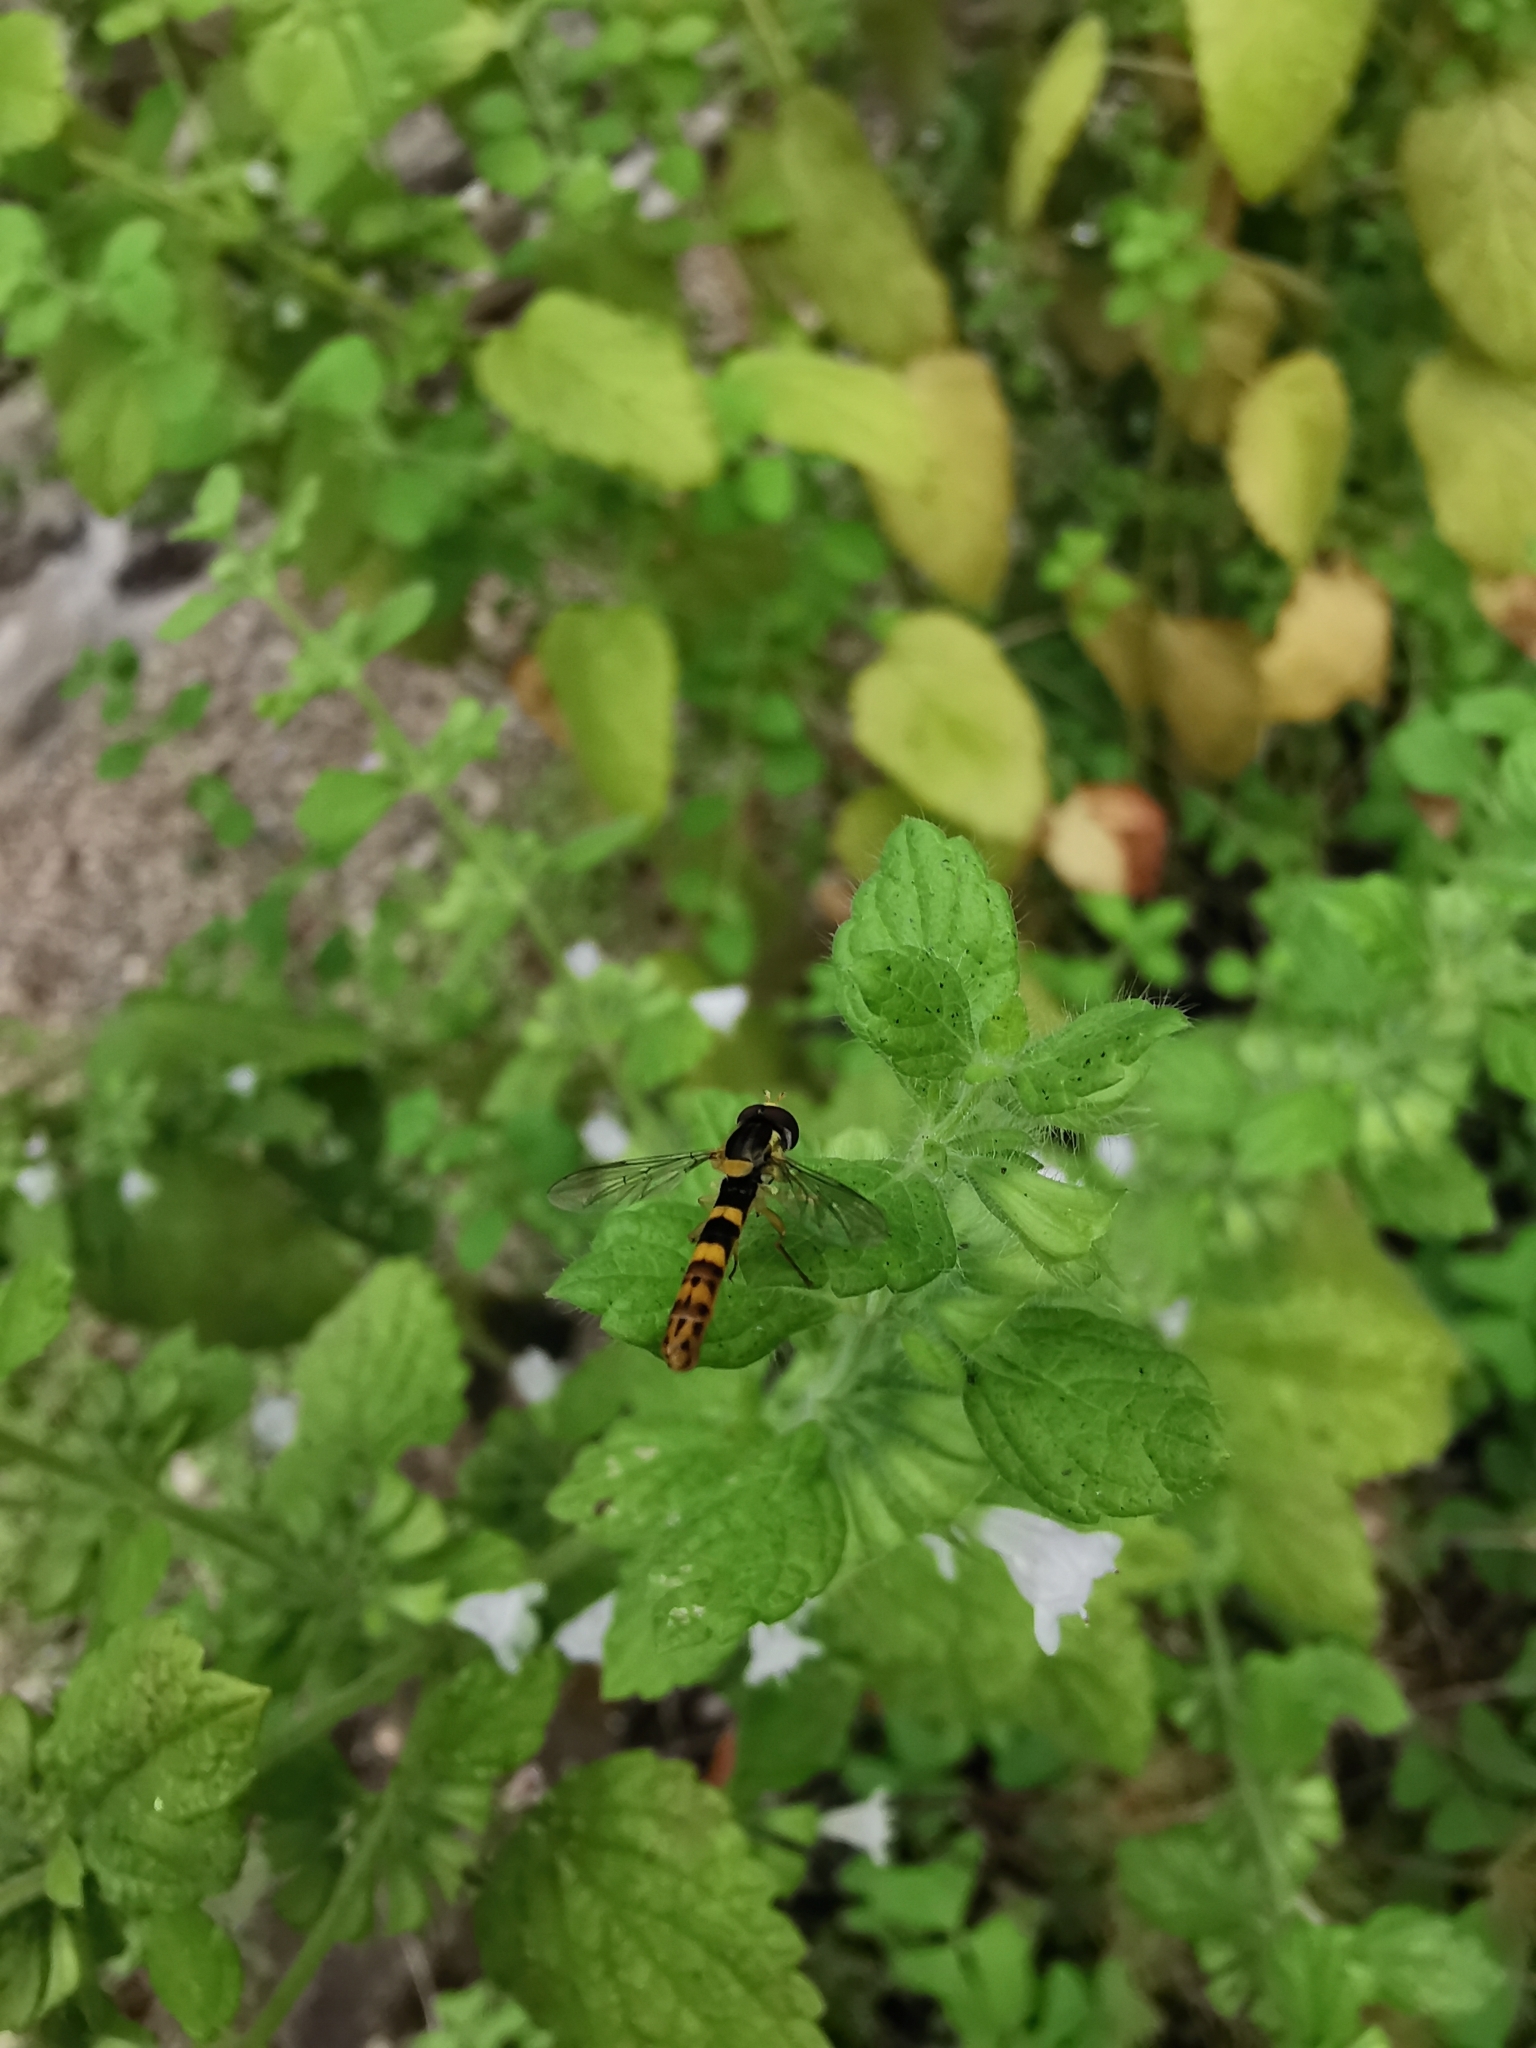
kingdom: Animalia
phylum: Arthropoda
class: Insecta
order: Diptera
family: Syrphidae
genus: Sphaerophoria
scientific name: Sphaerophoria scripta
